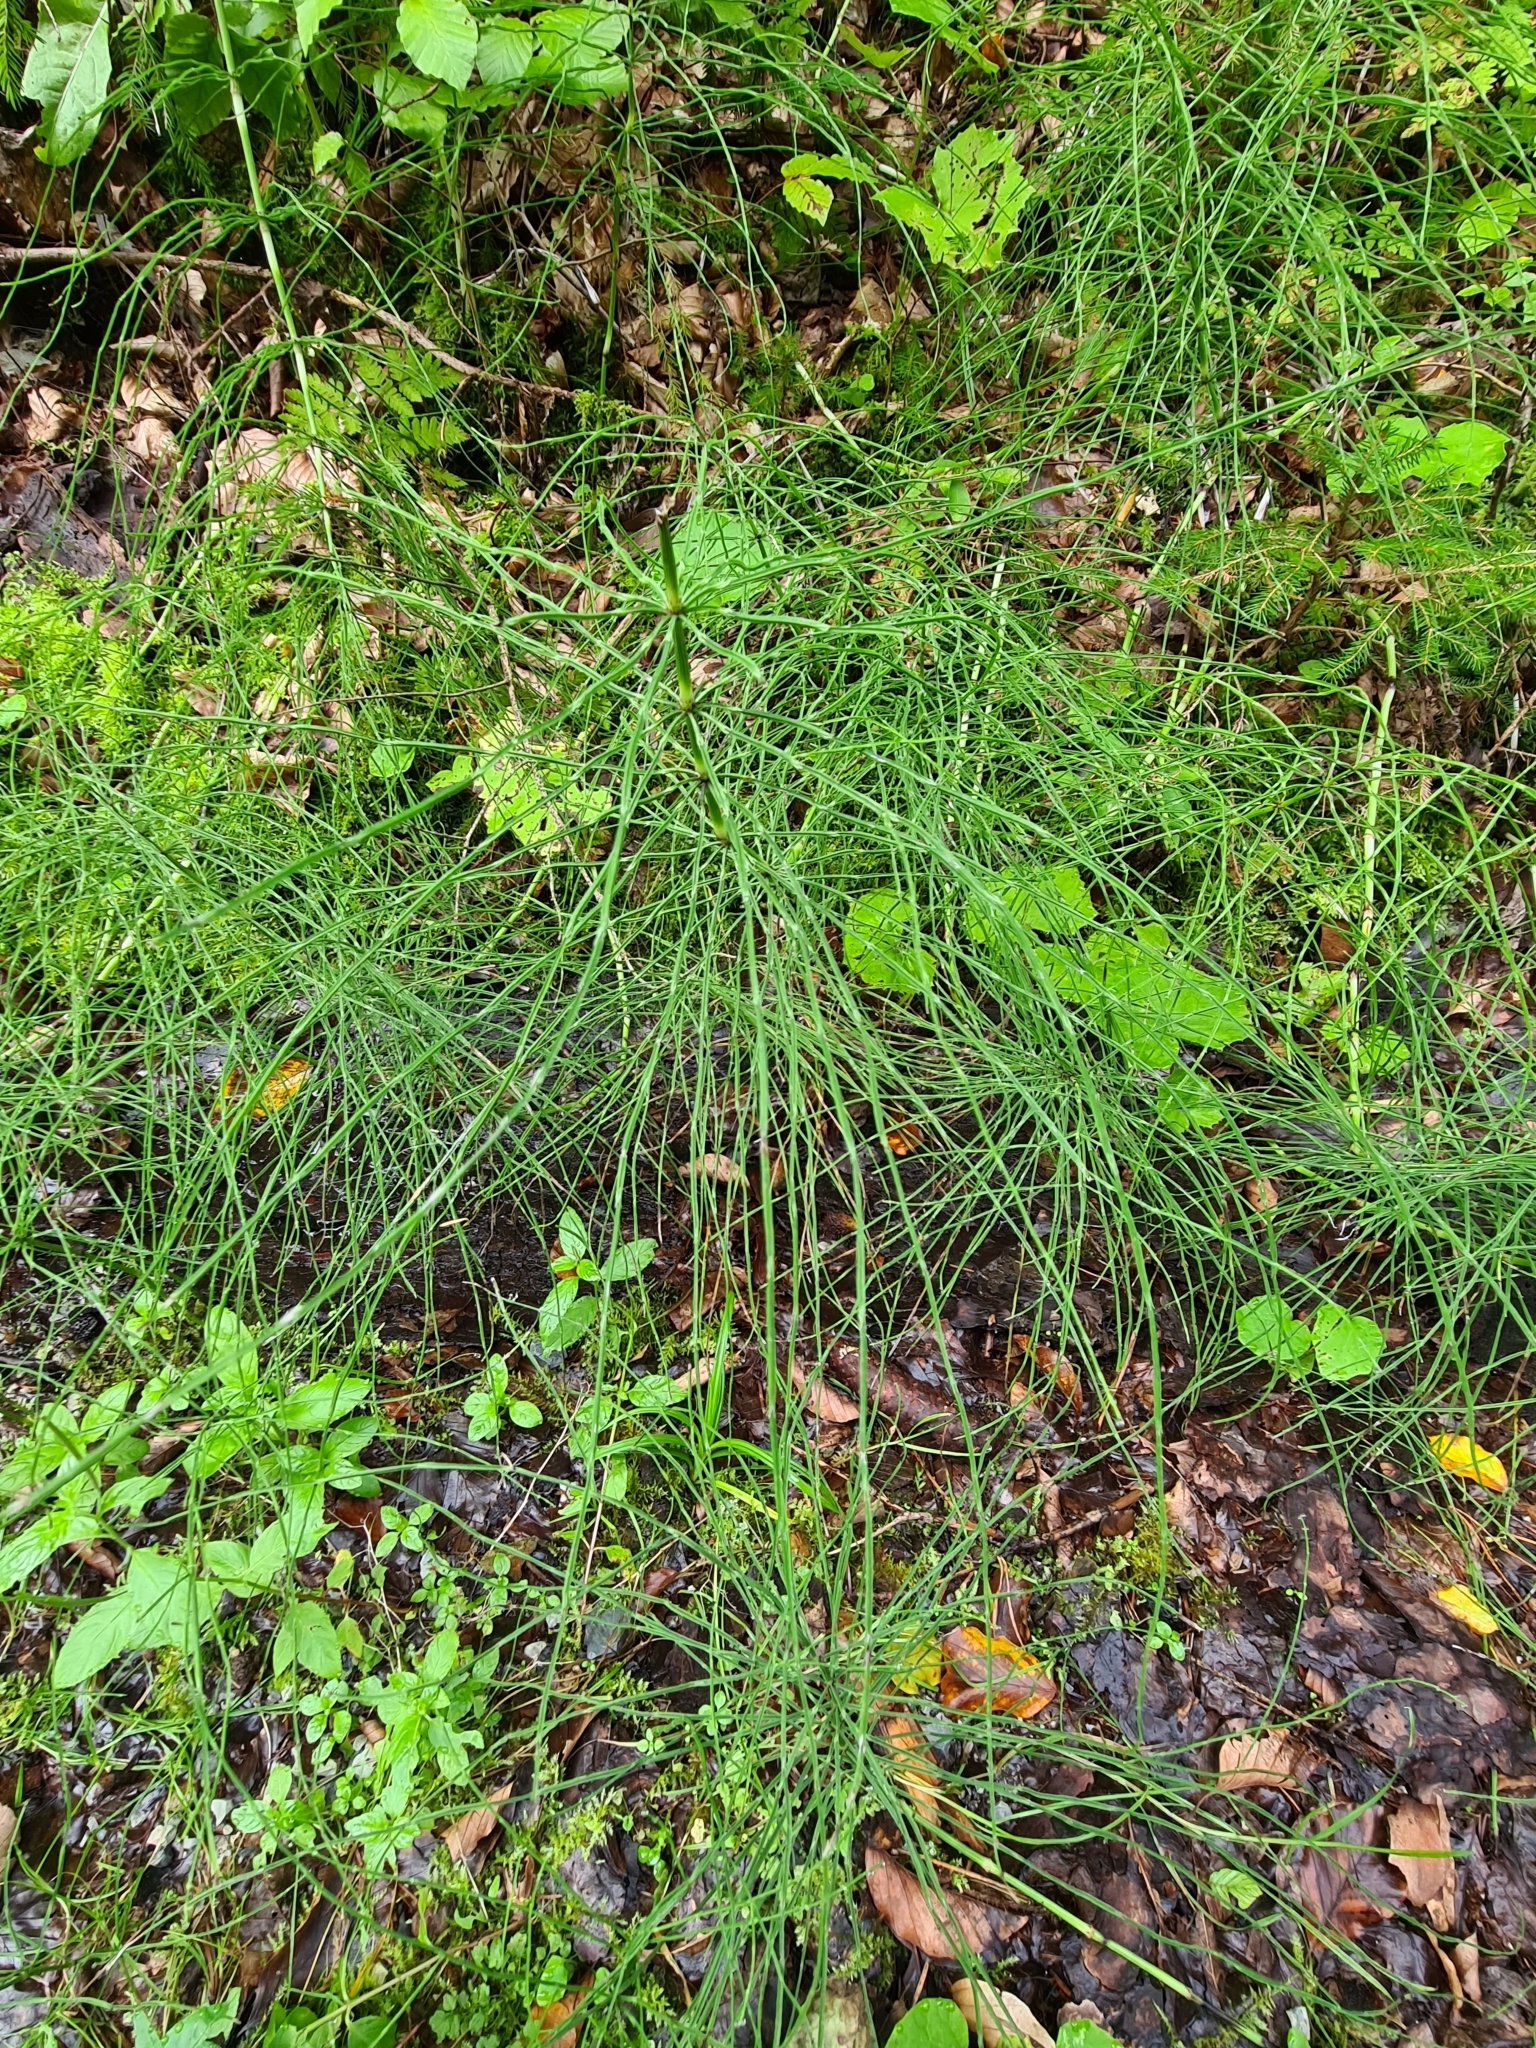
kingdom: Plantae
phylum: Tracheophyta
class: Polypodiopsida
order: Equisetales
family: Equisetaceae
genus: Equisetum
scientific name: Equisetum arvense
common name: Field horsetail
